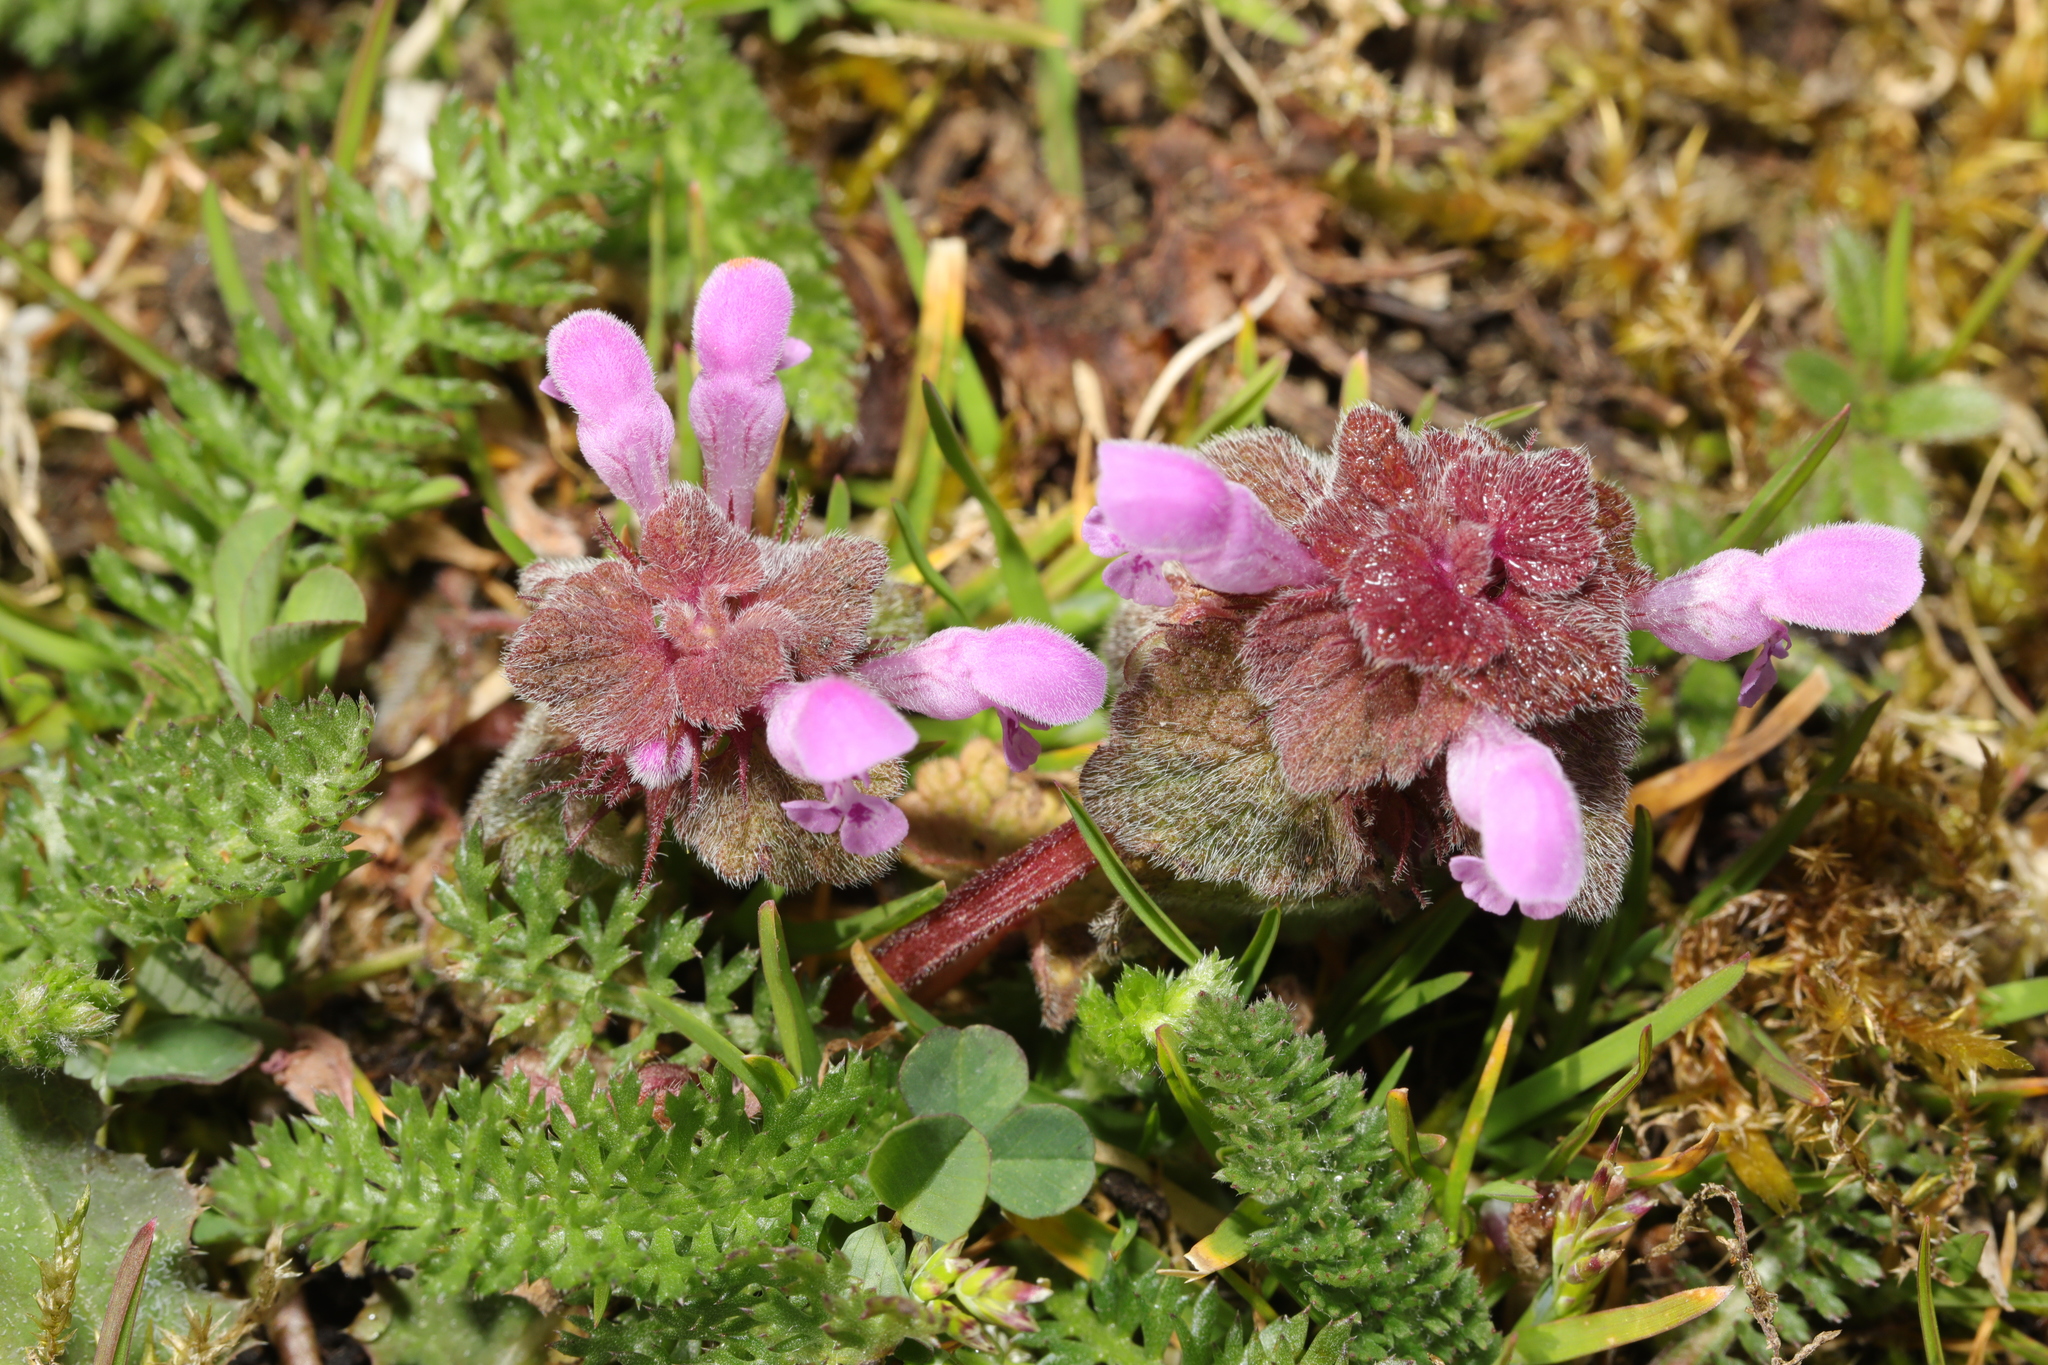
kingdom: Plantae
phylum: Tracheophyta
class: Magnoliopsida
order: Lamiales
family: Lamiaceae
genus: Lamium
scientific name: Lamium purpureum
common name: Red dead-nettle
